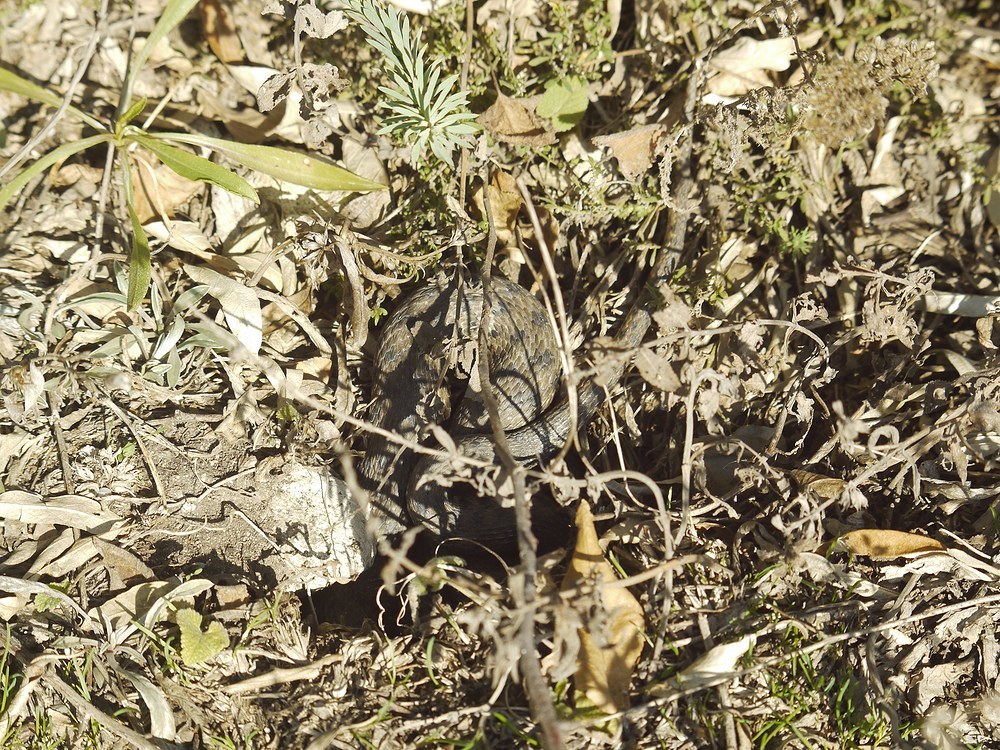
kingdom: Animalia
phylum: Chordata
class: Squamata
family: Colubridae
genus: Natrix
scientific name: Natrix tessellata
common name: Dice snake
